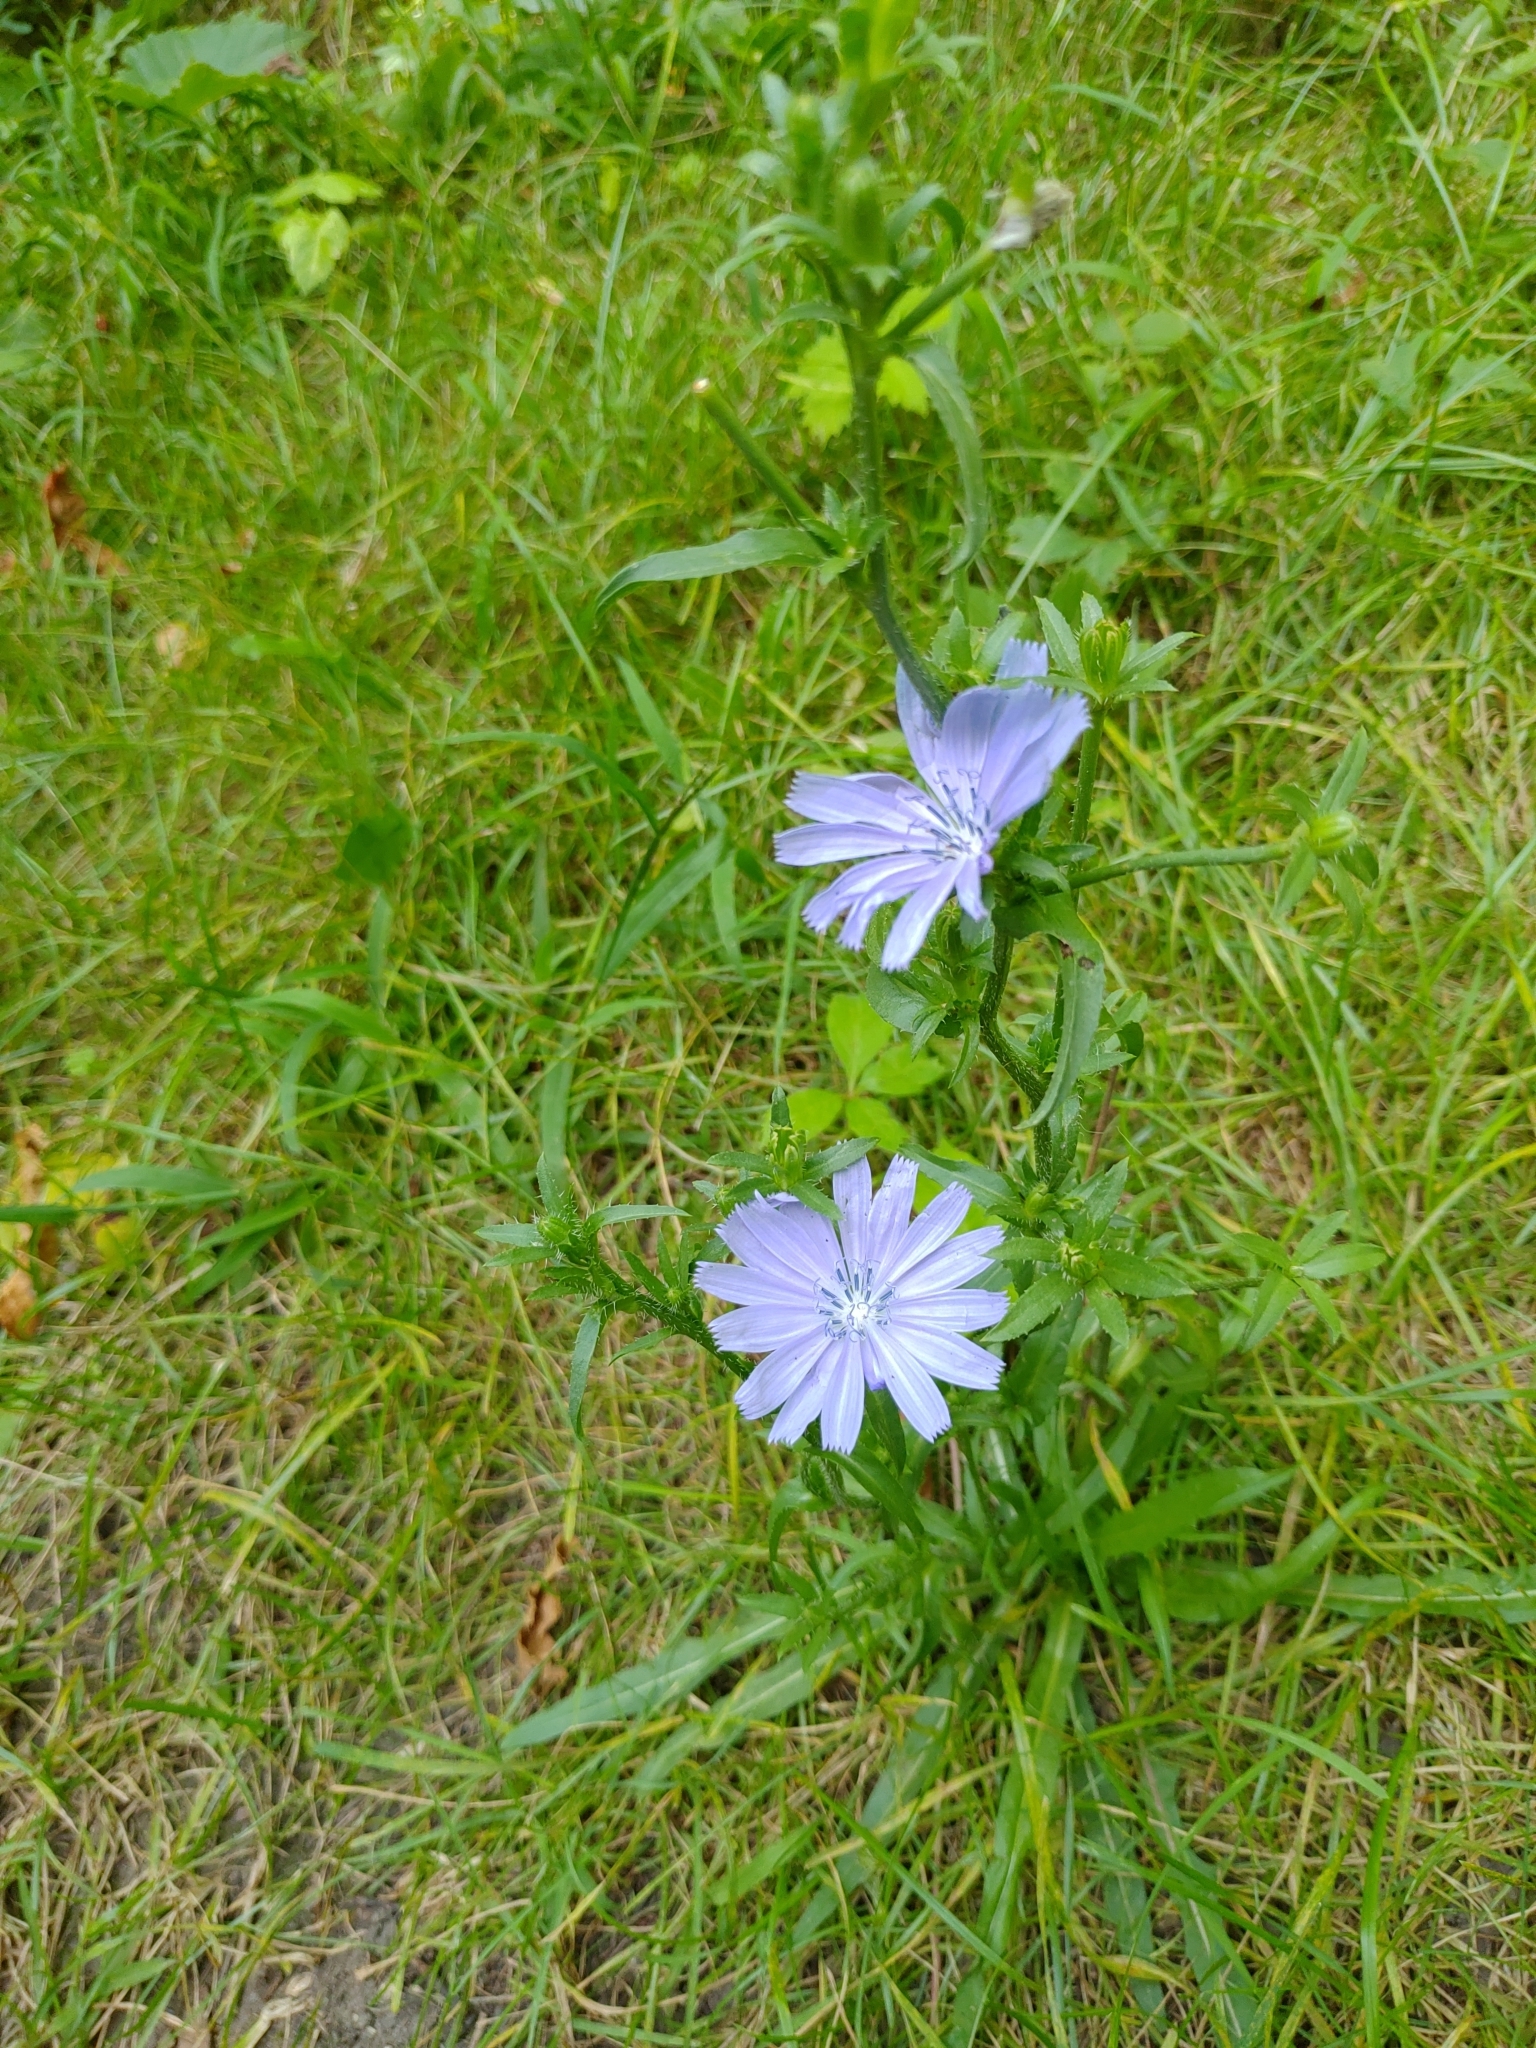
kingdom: Plantae
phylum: Tracheophyta
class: Magnoliopsida
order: Asterales
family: Asteraceae
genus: Cichorium
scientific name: Cichorium intybus
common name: Chicory
